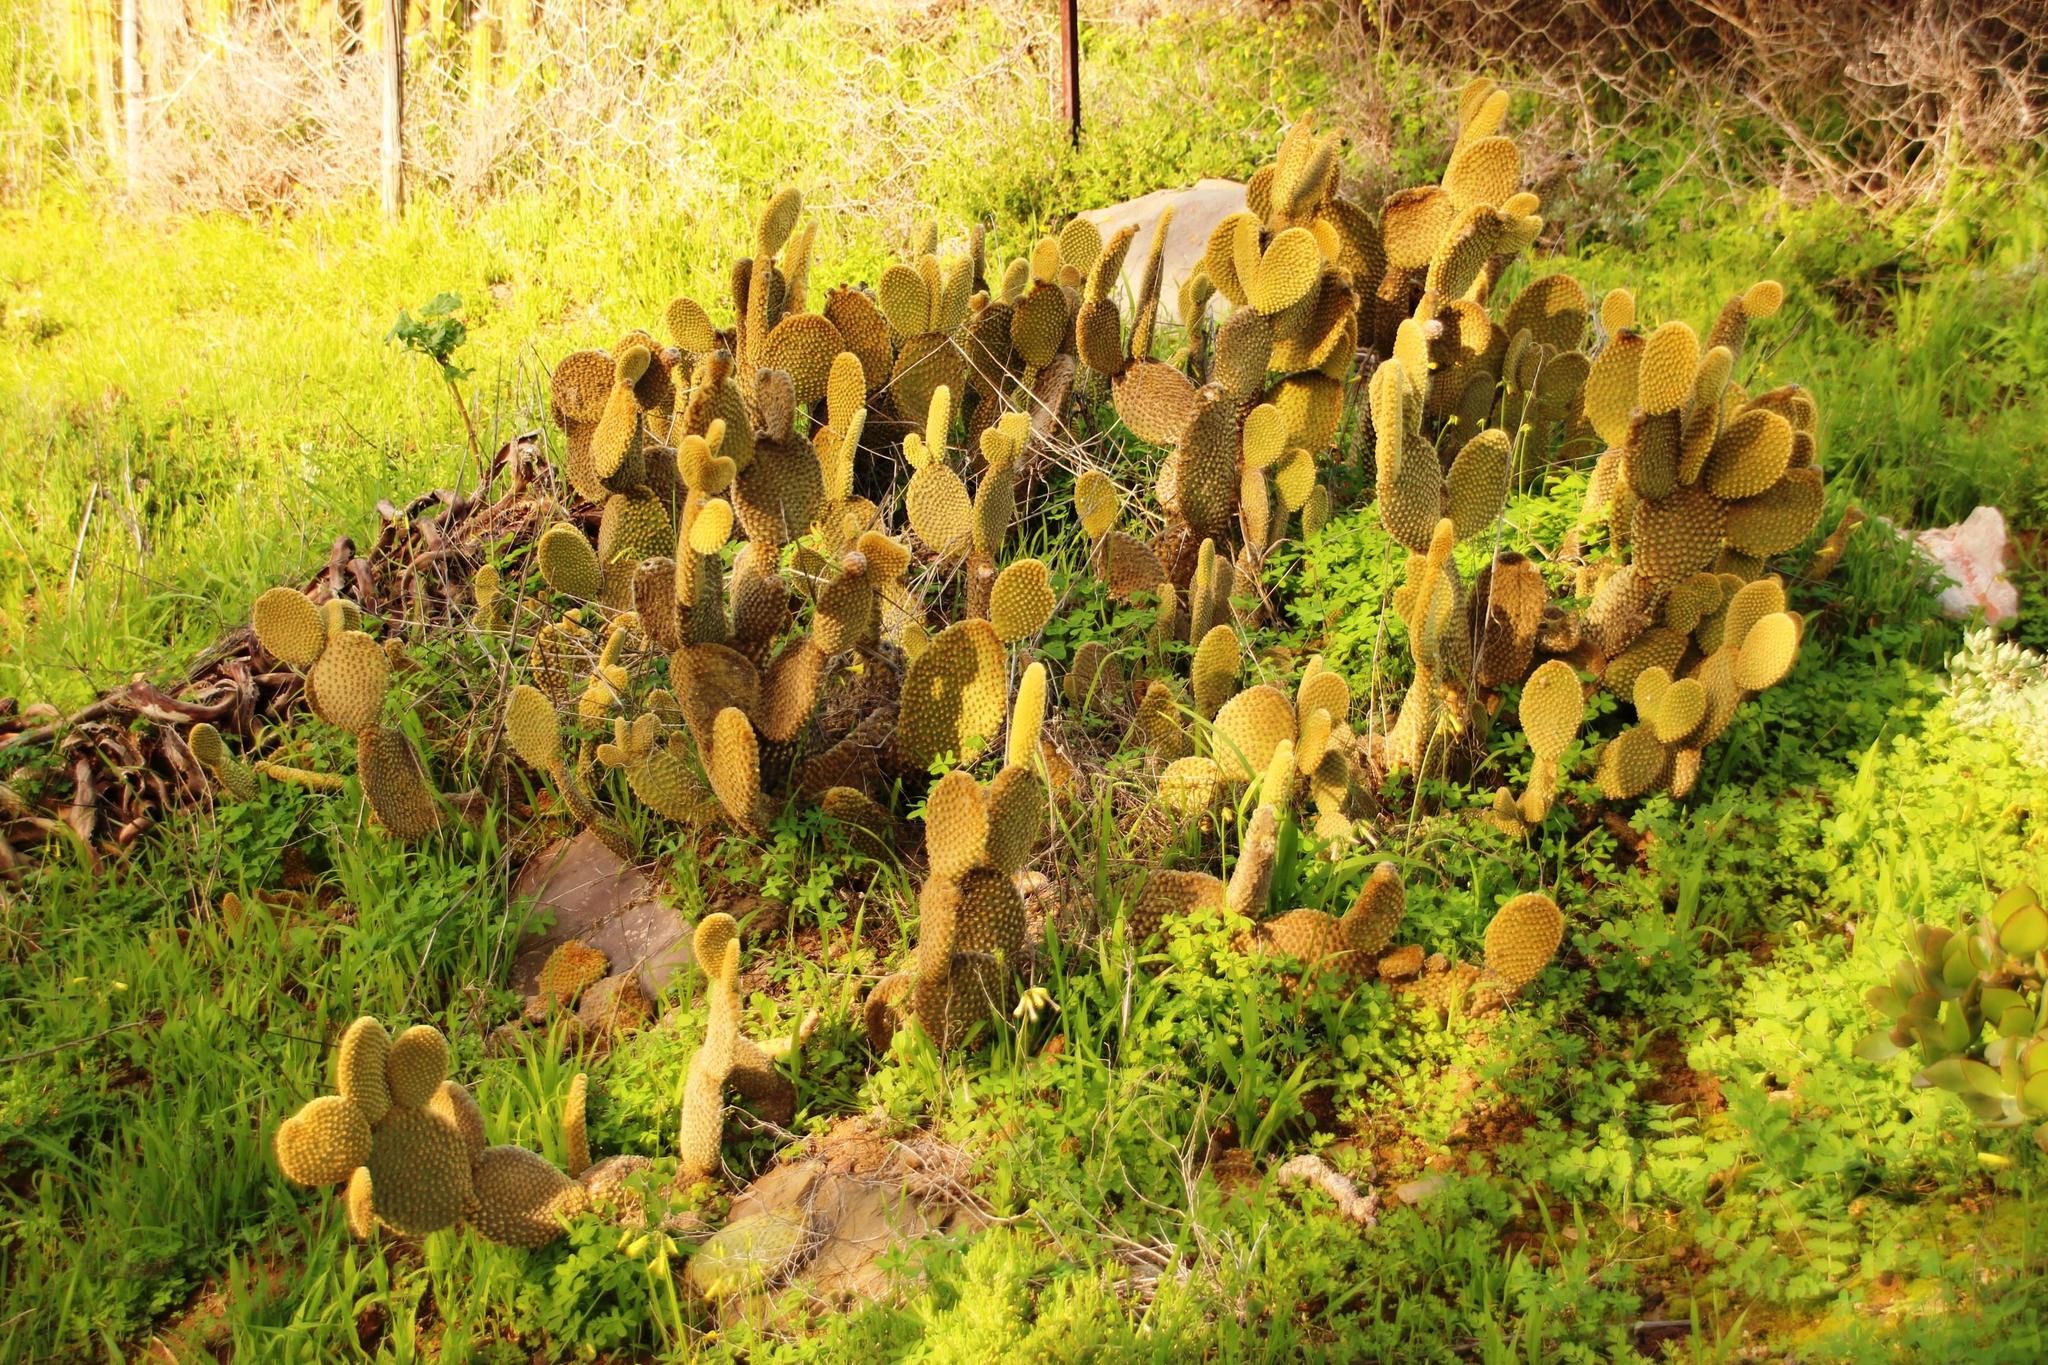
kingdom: Plantae
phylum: Tracheophyta
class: Magnoliopsida
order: Caryophyllales
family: Cactaceae
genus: Opuntia
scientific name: Opuntia microdasys
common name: Angel's-wings
